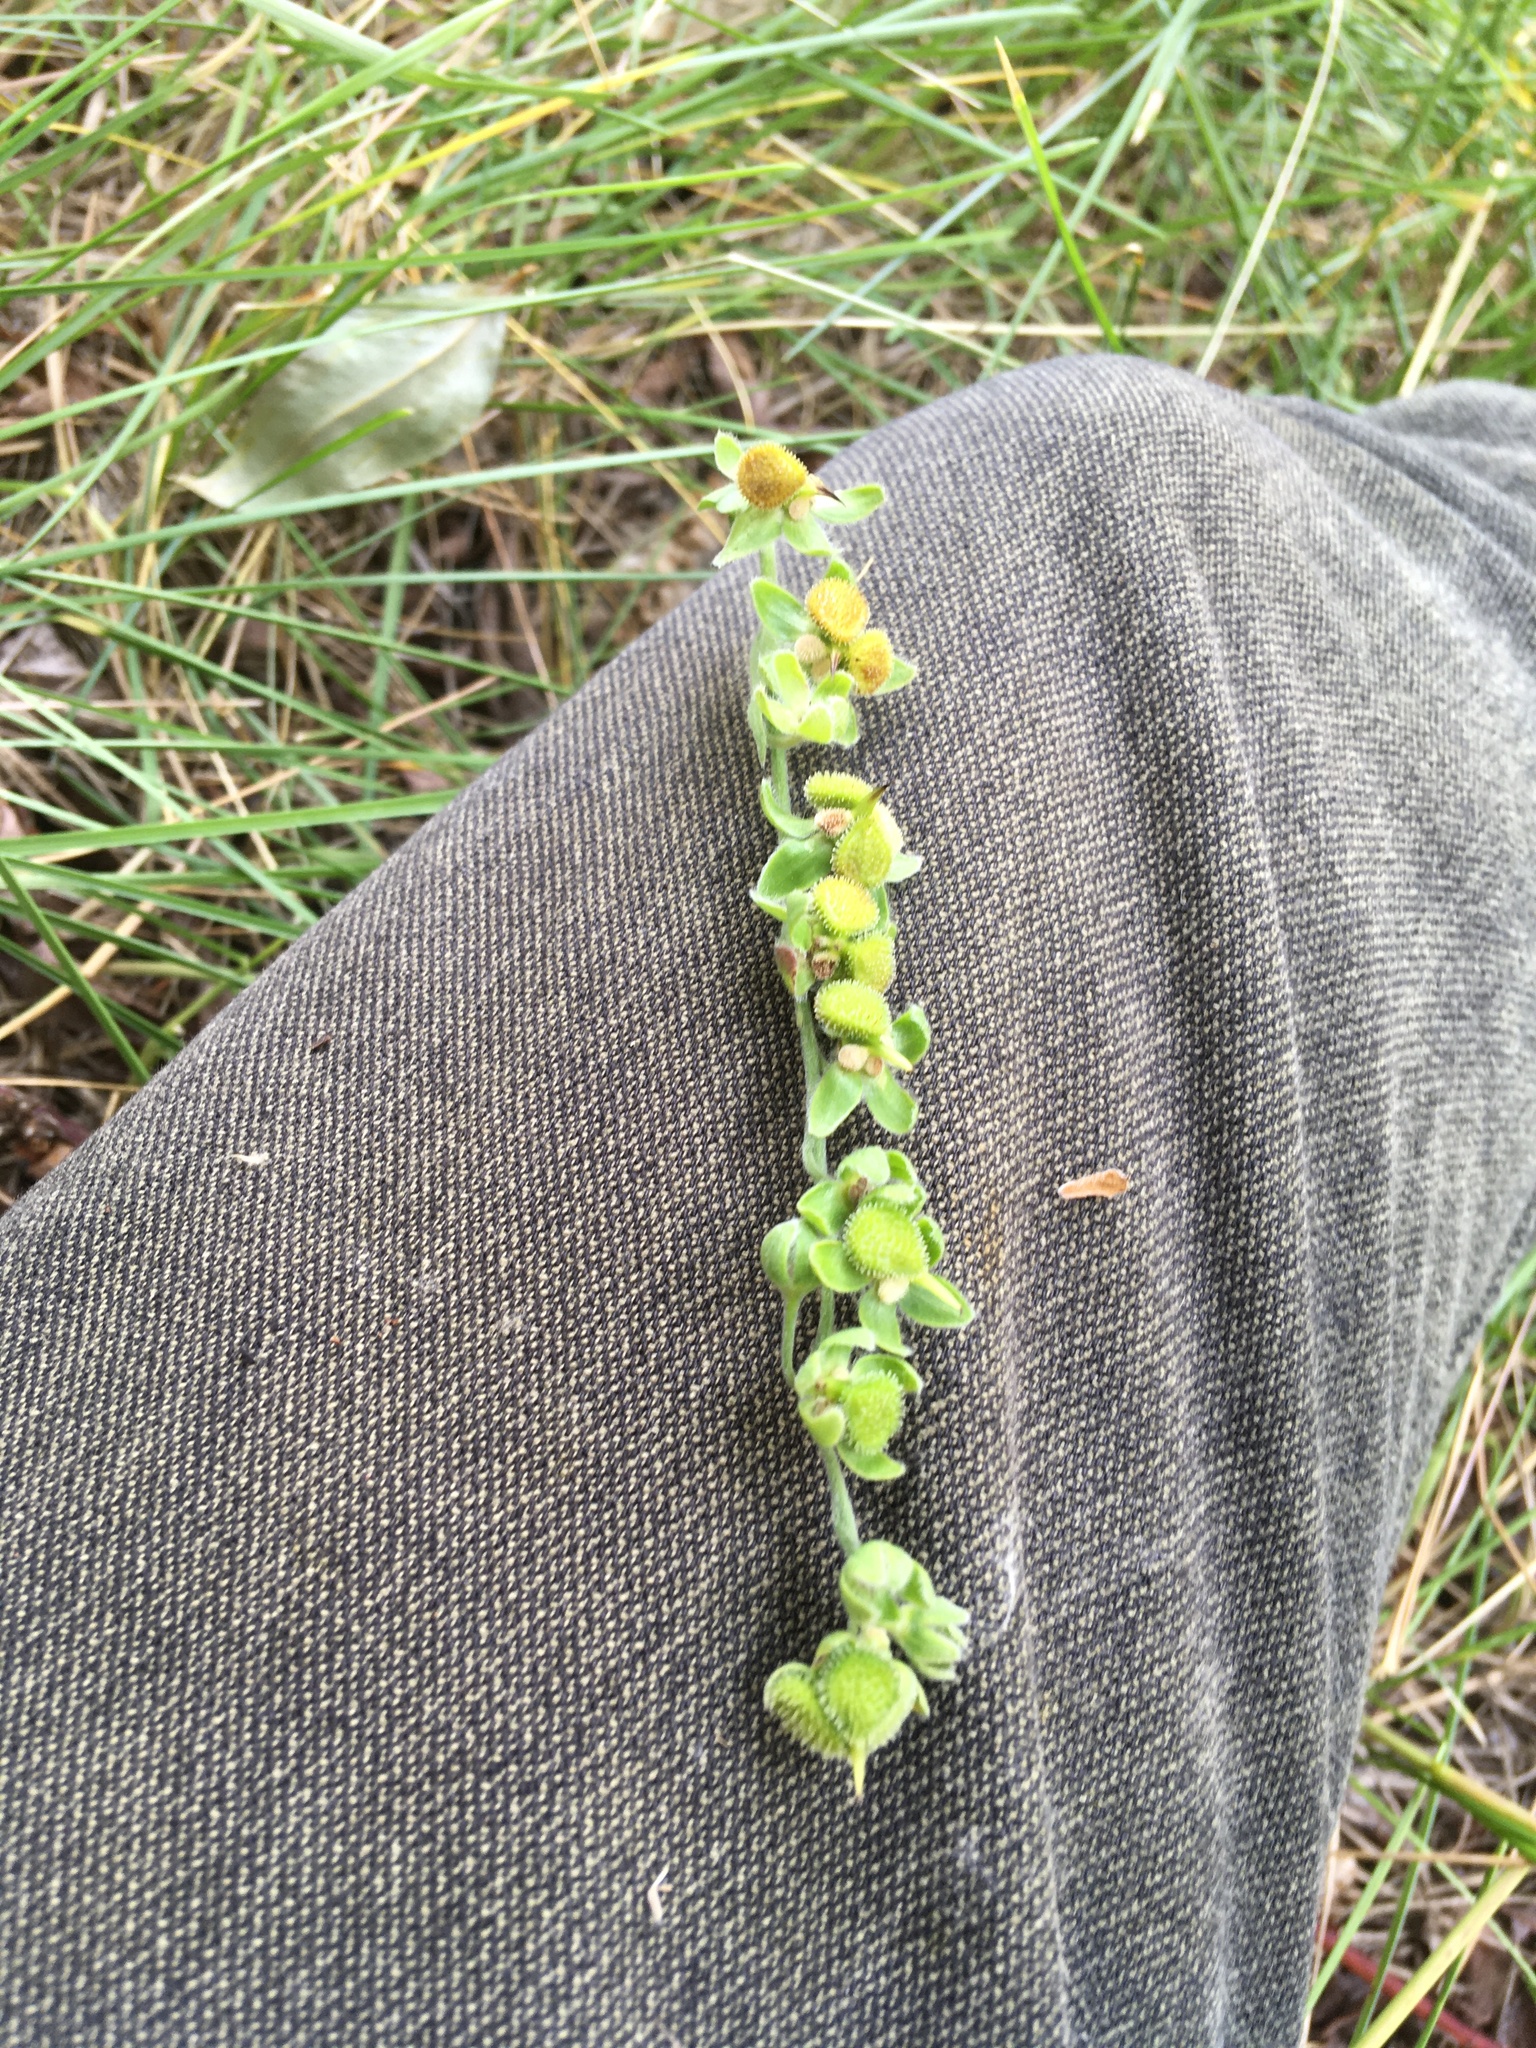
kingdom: Plantae
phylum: Tracheophyta
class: Magnoliopsida
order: Boraginales
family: Boraginaceae
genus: Cynoglossum
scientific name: Cynoglossum officinale
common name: Hound's-tongue
